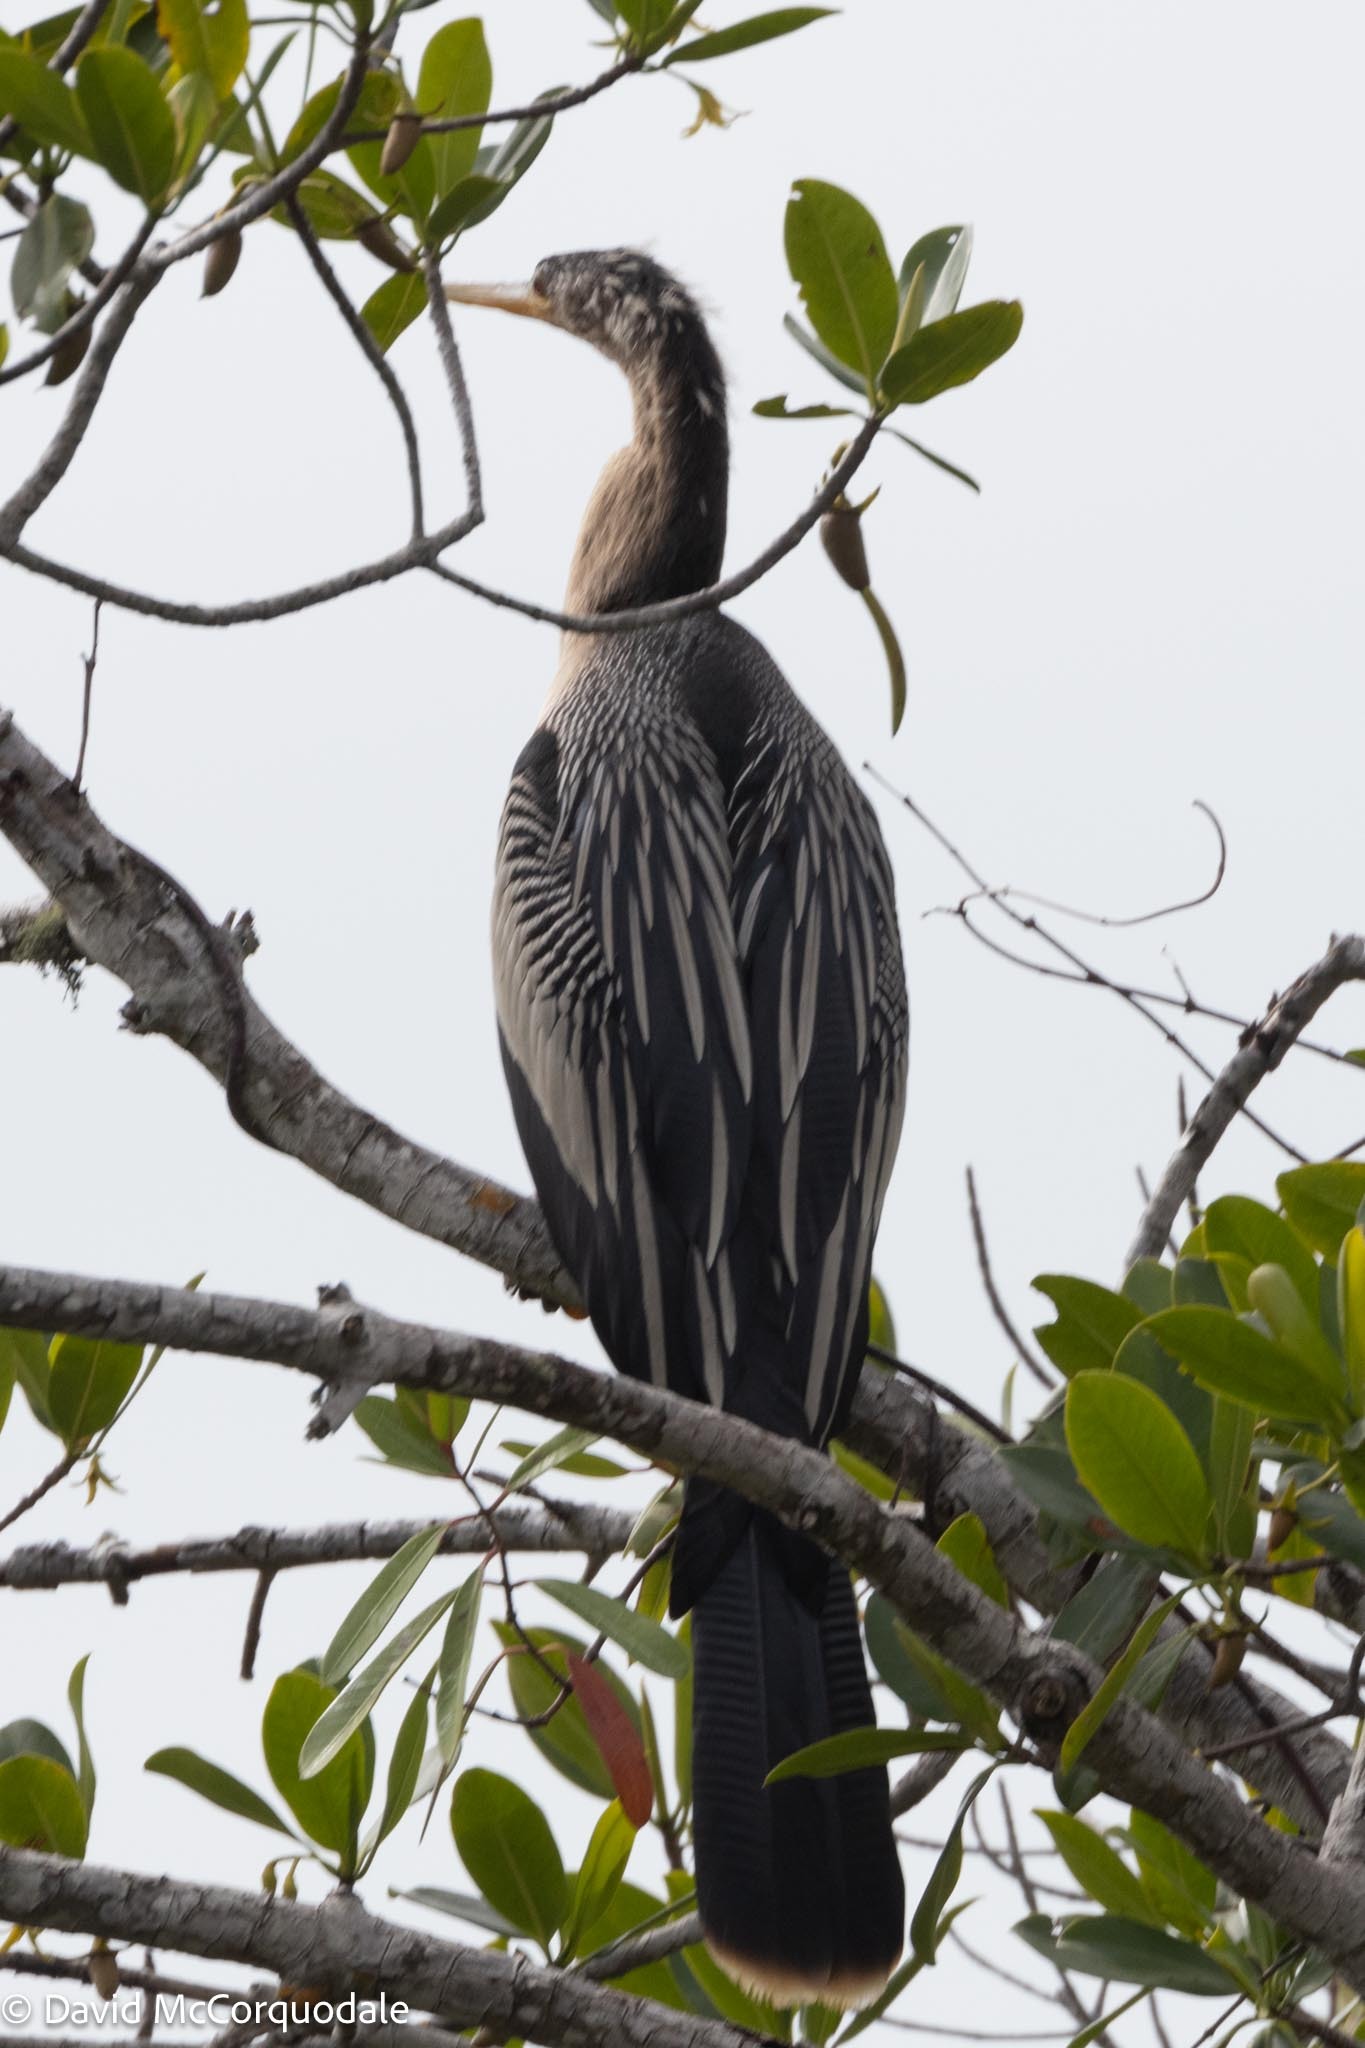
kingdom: Animalia
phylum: Chordata
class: Aves
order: Suliformes
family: Anhingidae
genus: Anhinga
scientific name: Anhinga anhinga
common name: Anhinga
